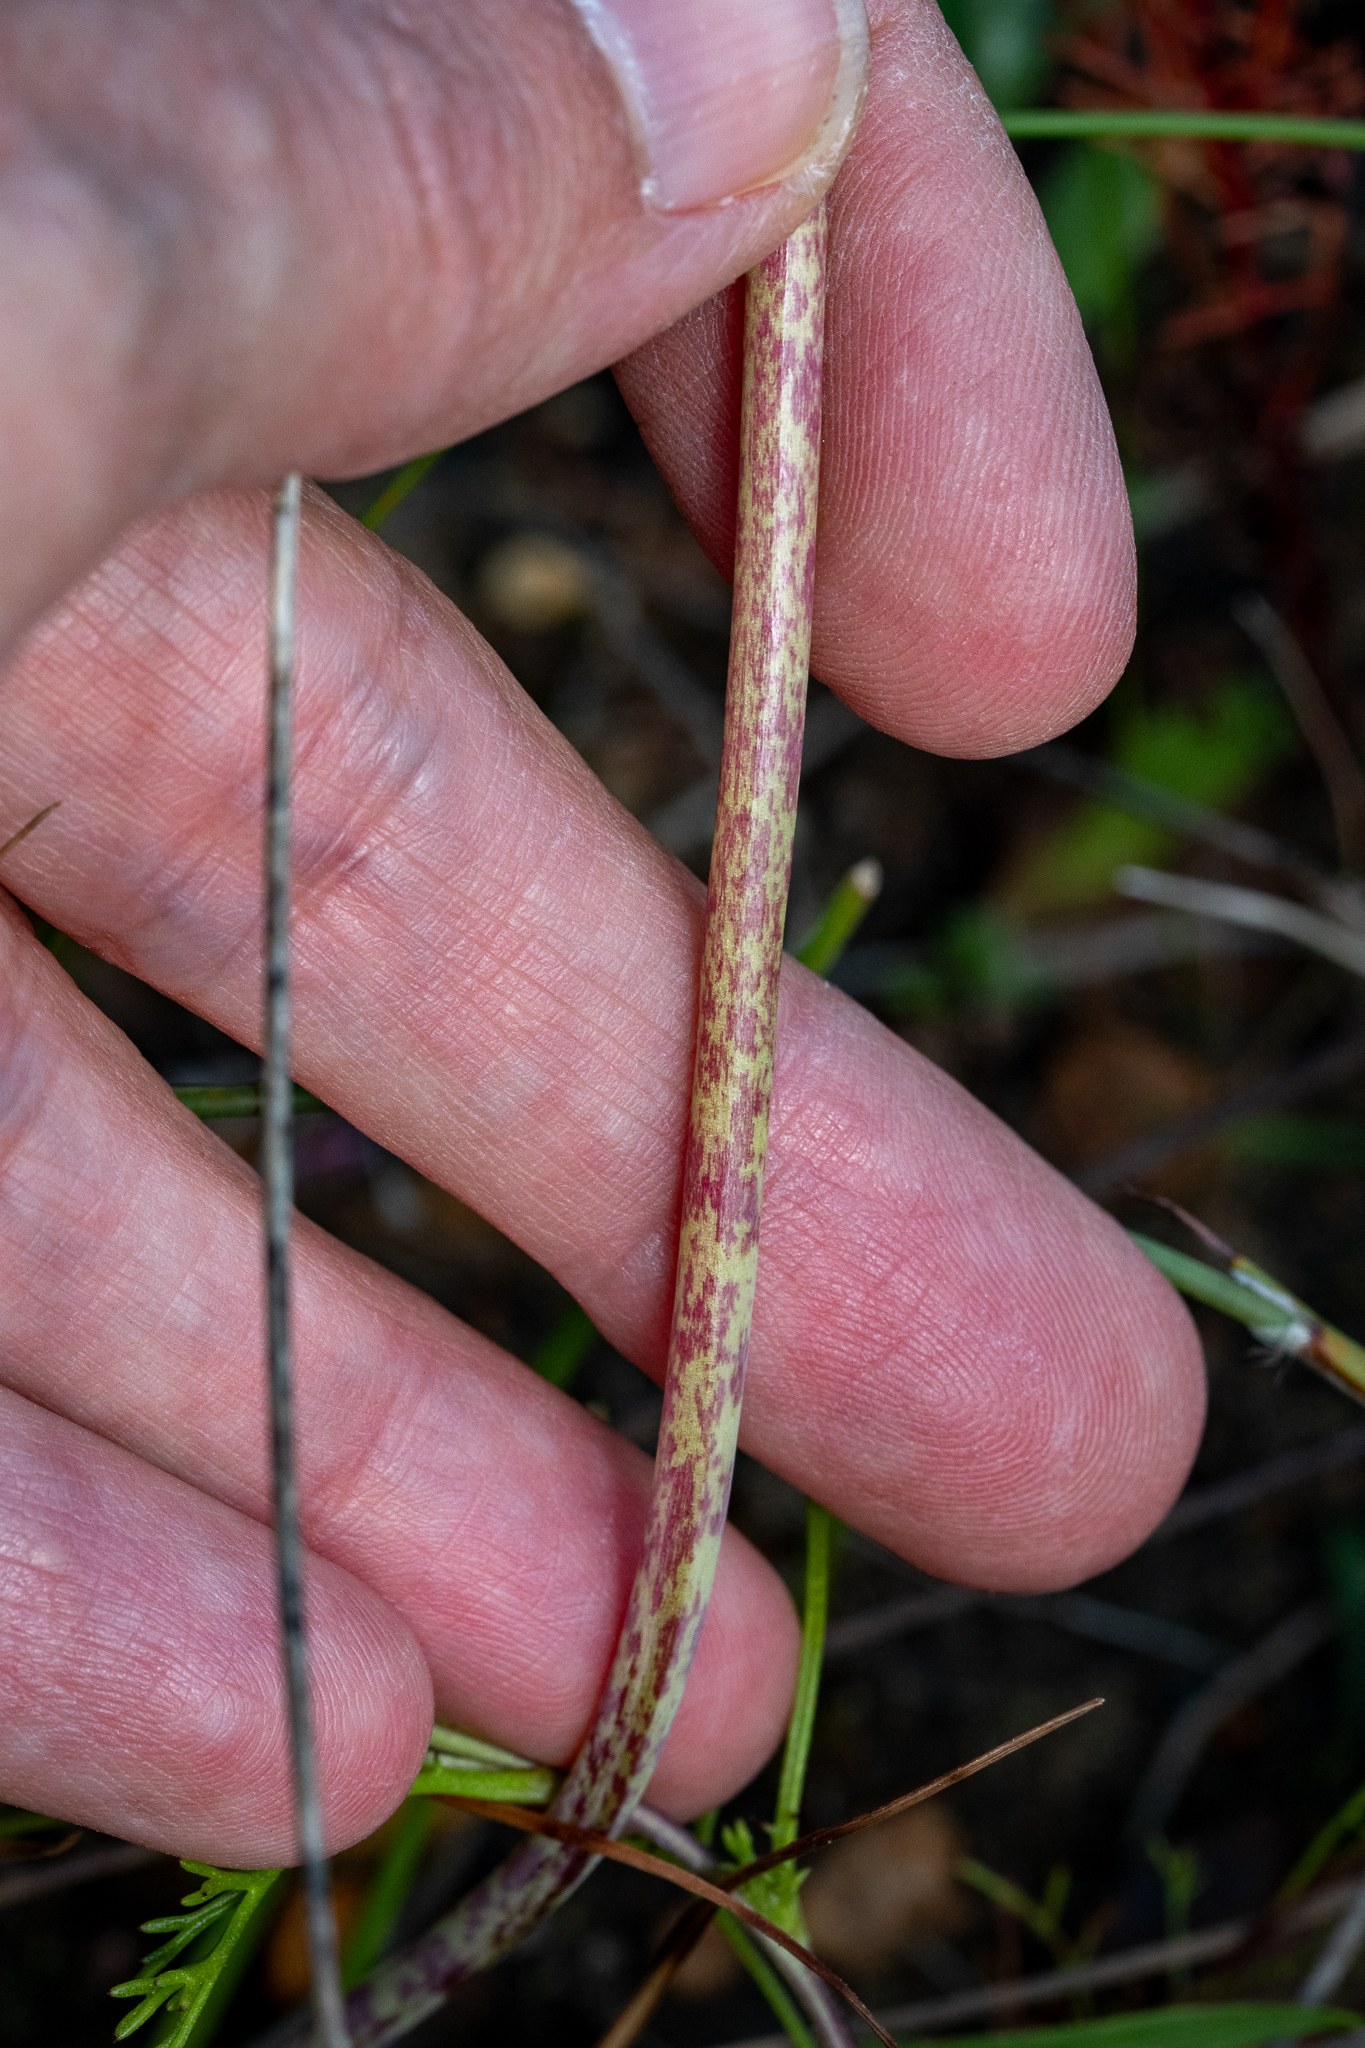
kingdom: Plantae
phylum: Tracheophyta
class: Liliopsida
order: Asparagales
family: Asparagaceae
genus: Lachenalia
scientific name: Lachenalia contaminata
